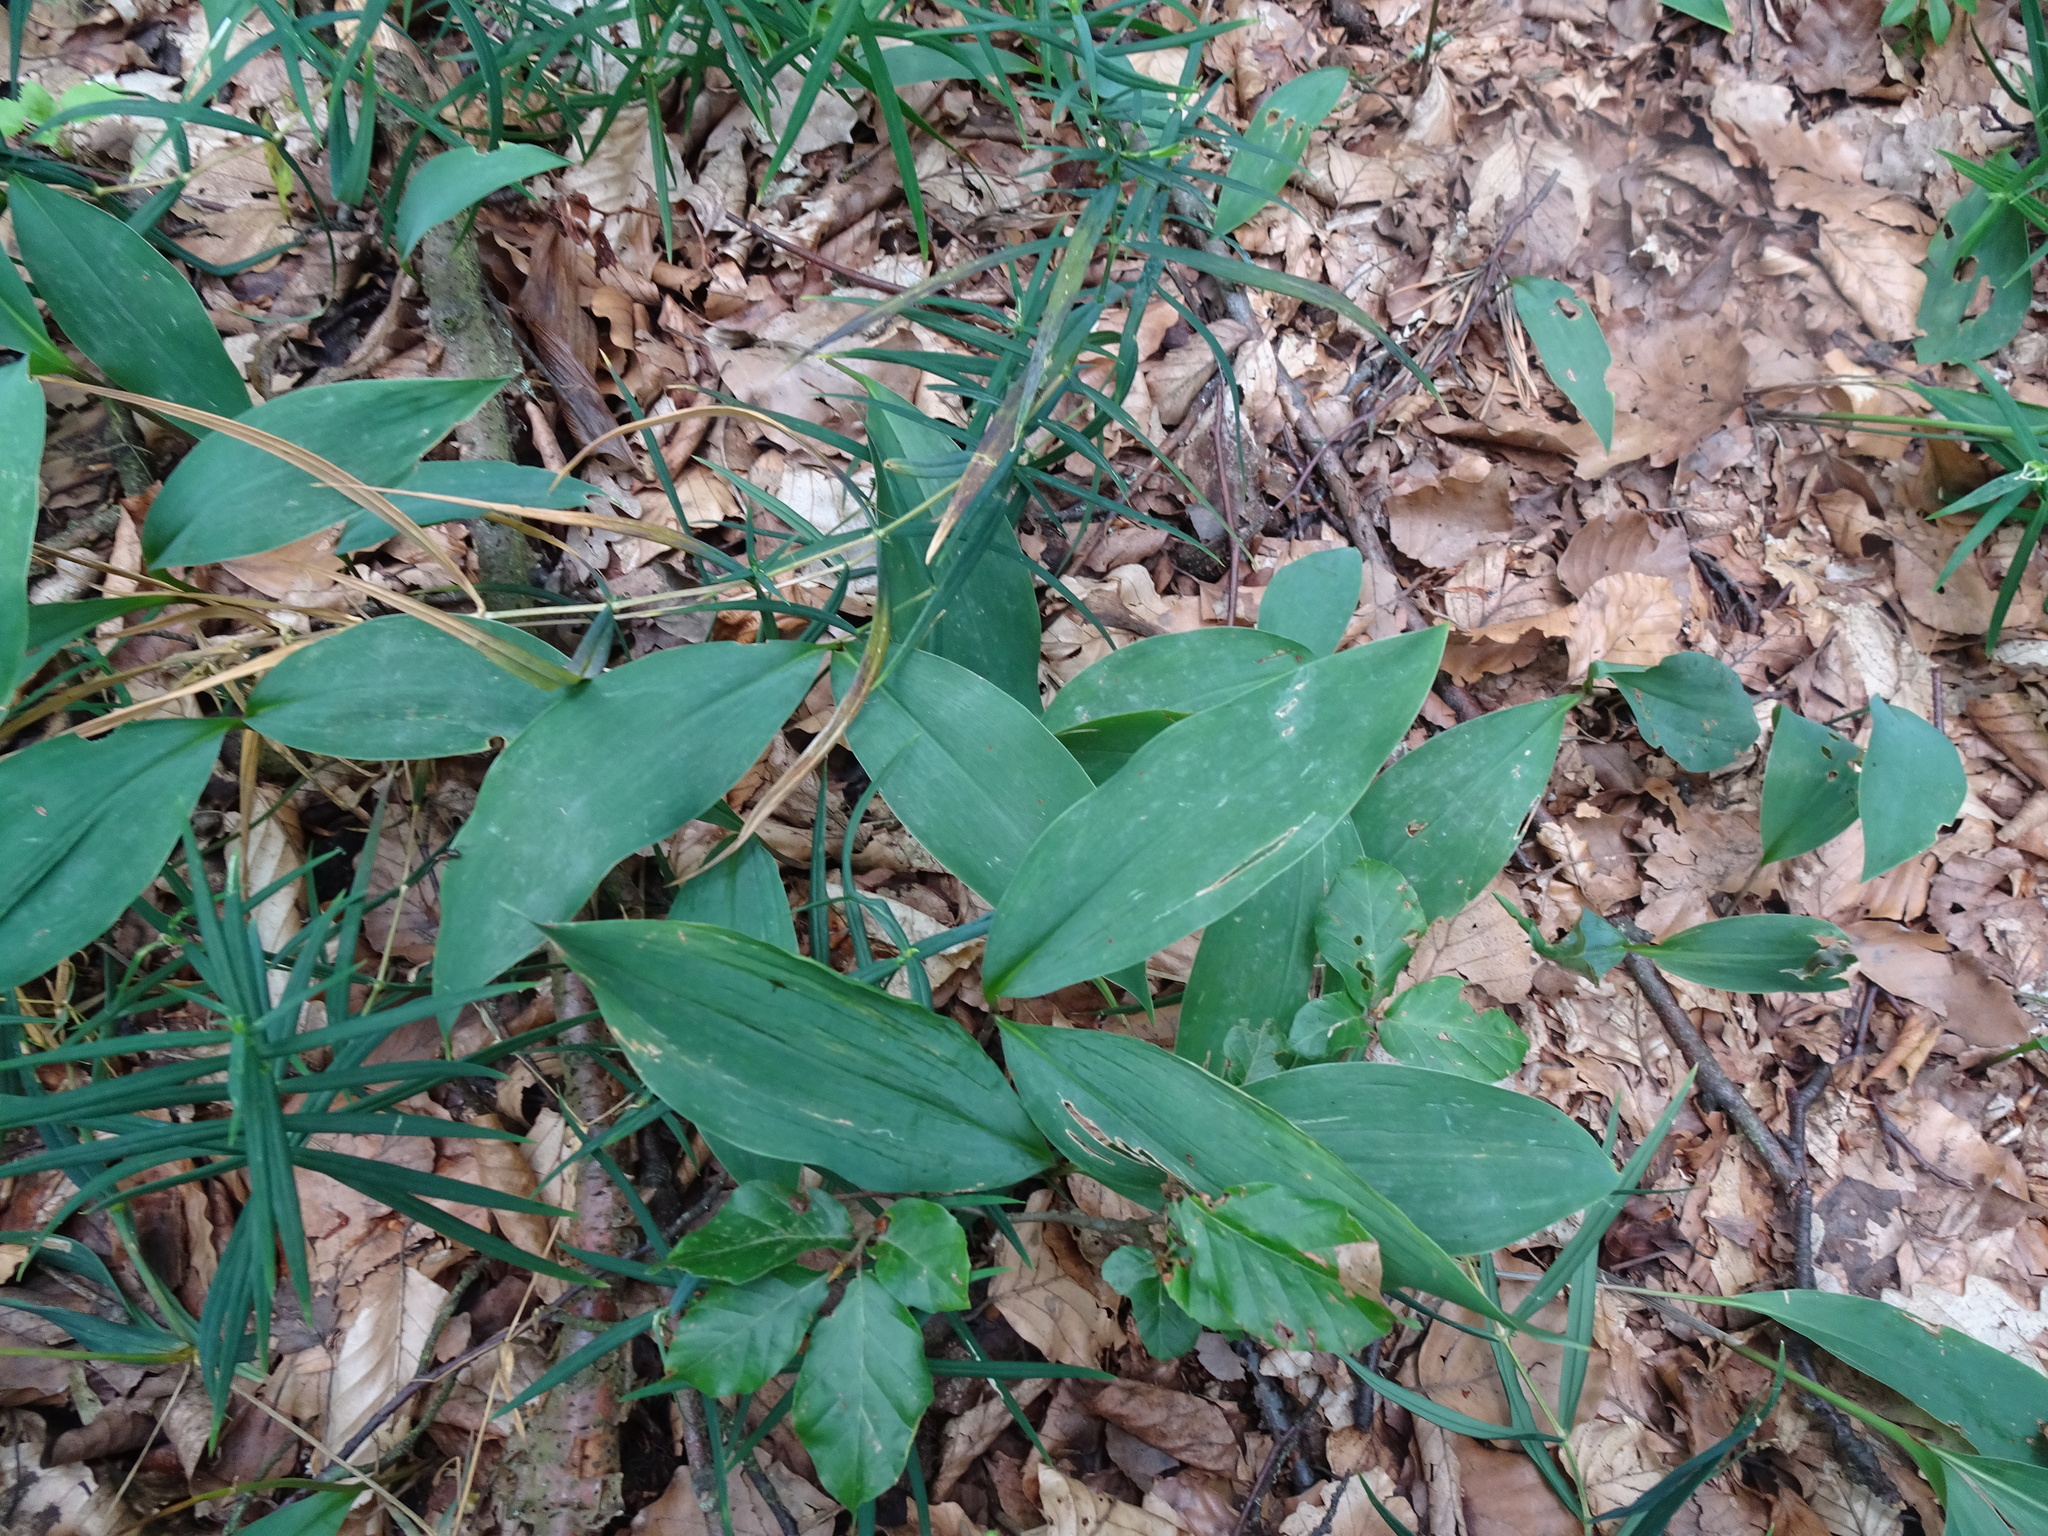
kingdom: Plantae
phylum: Tracheophyta
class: Liliopsida
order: Asparagales
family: Asparagaceae
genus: Convallaria
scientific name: Convallaria majalis
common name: Lily-of-the-valley
